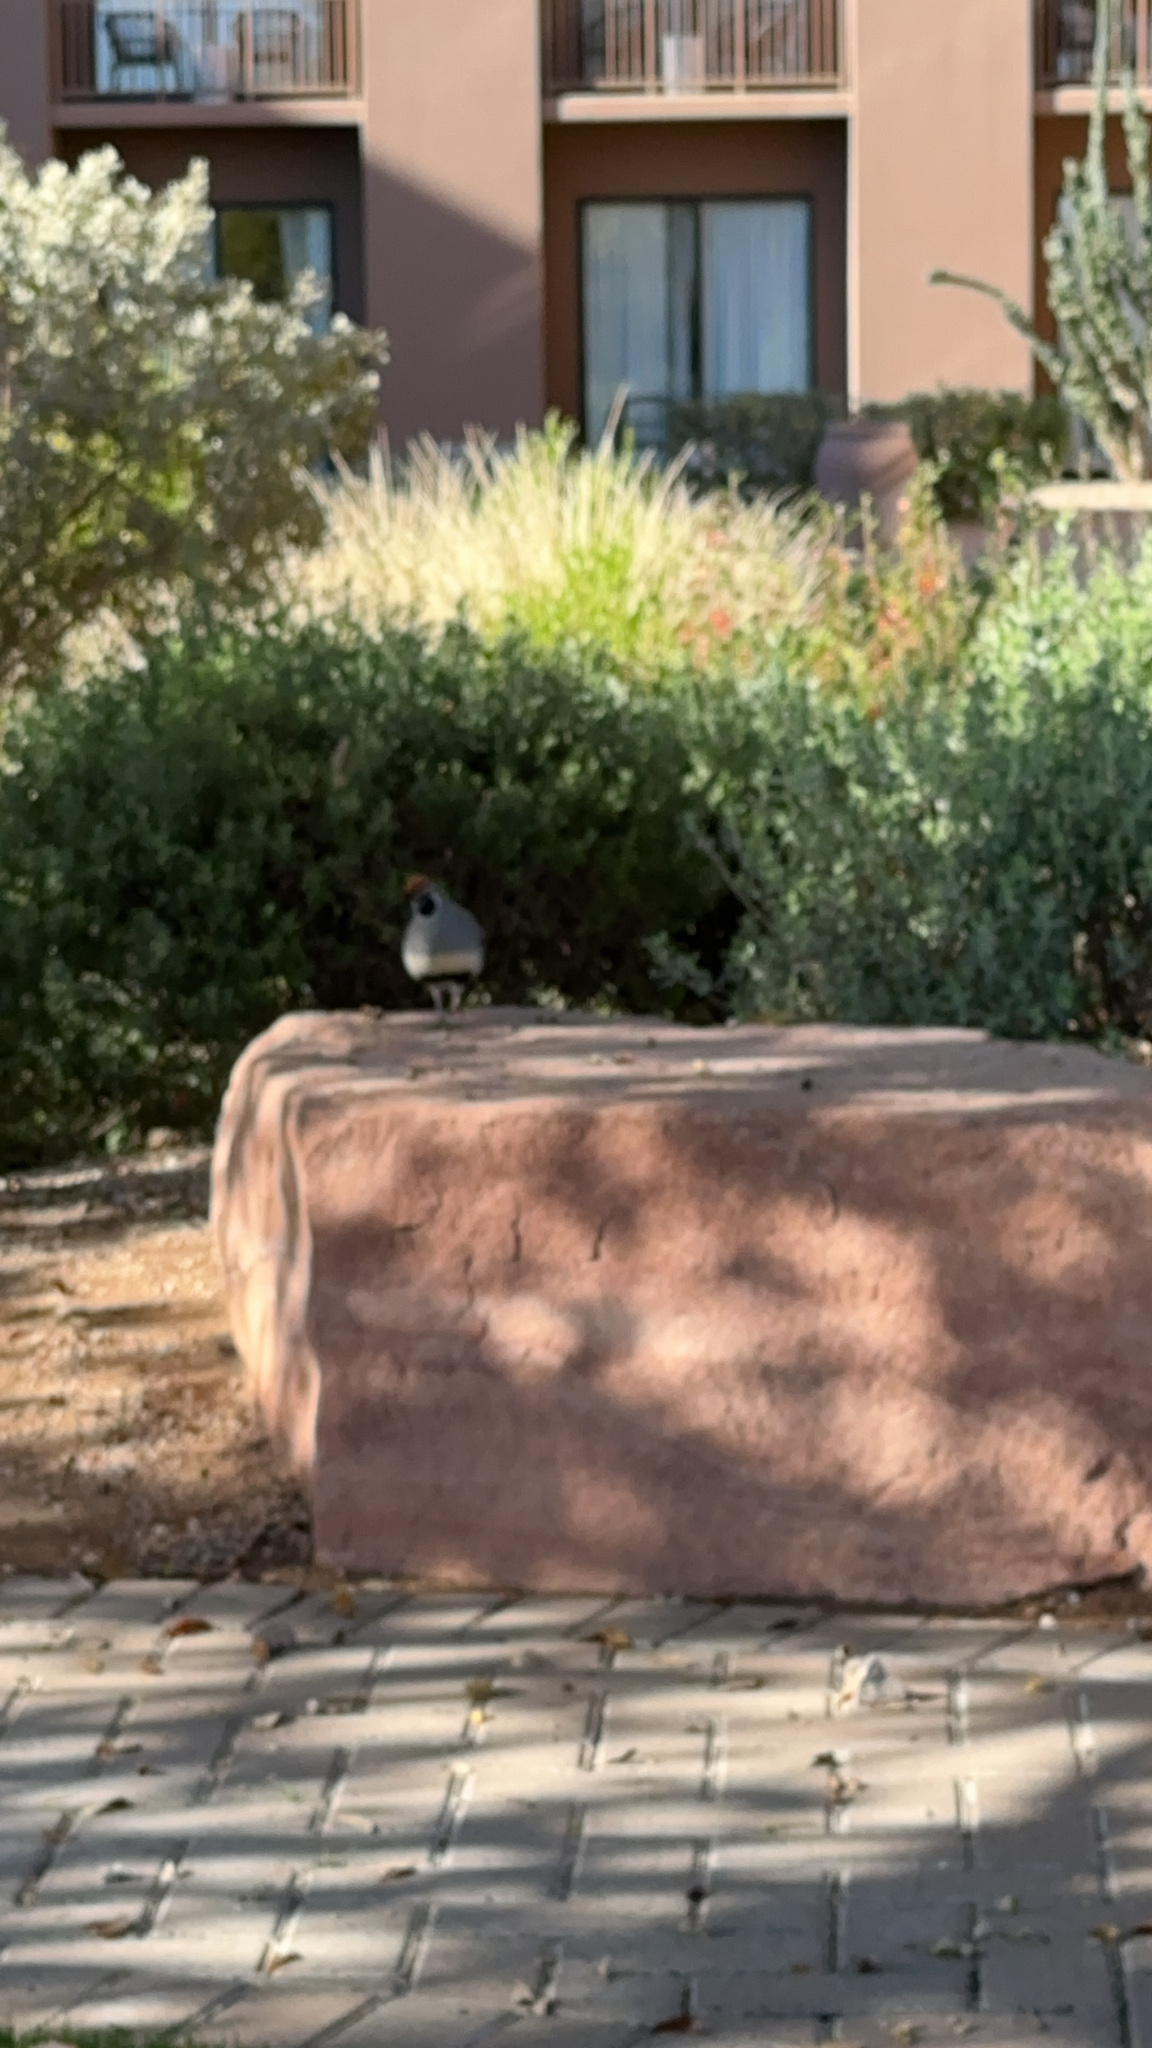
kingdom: Animalia
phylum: Chordata
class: Aves
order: Galliformes
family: Odontophoridae
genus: Callipepla
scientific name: Callipepla gambelii
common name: Gambel's quail
